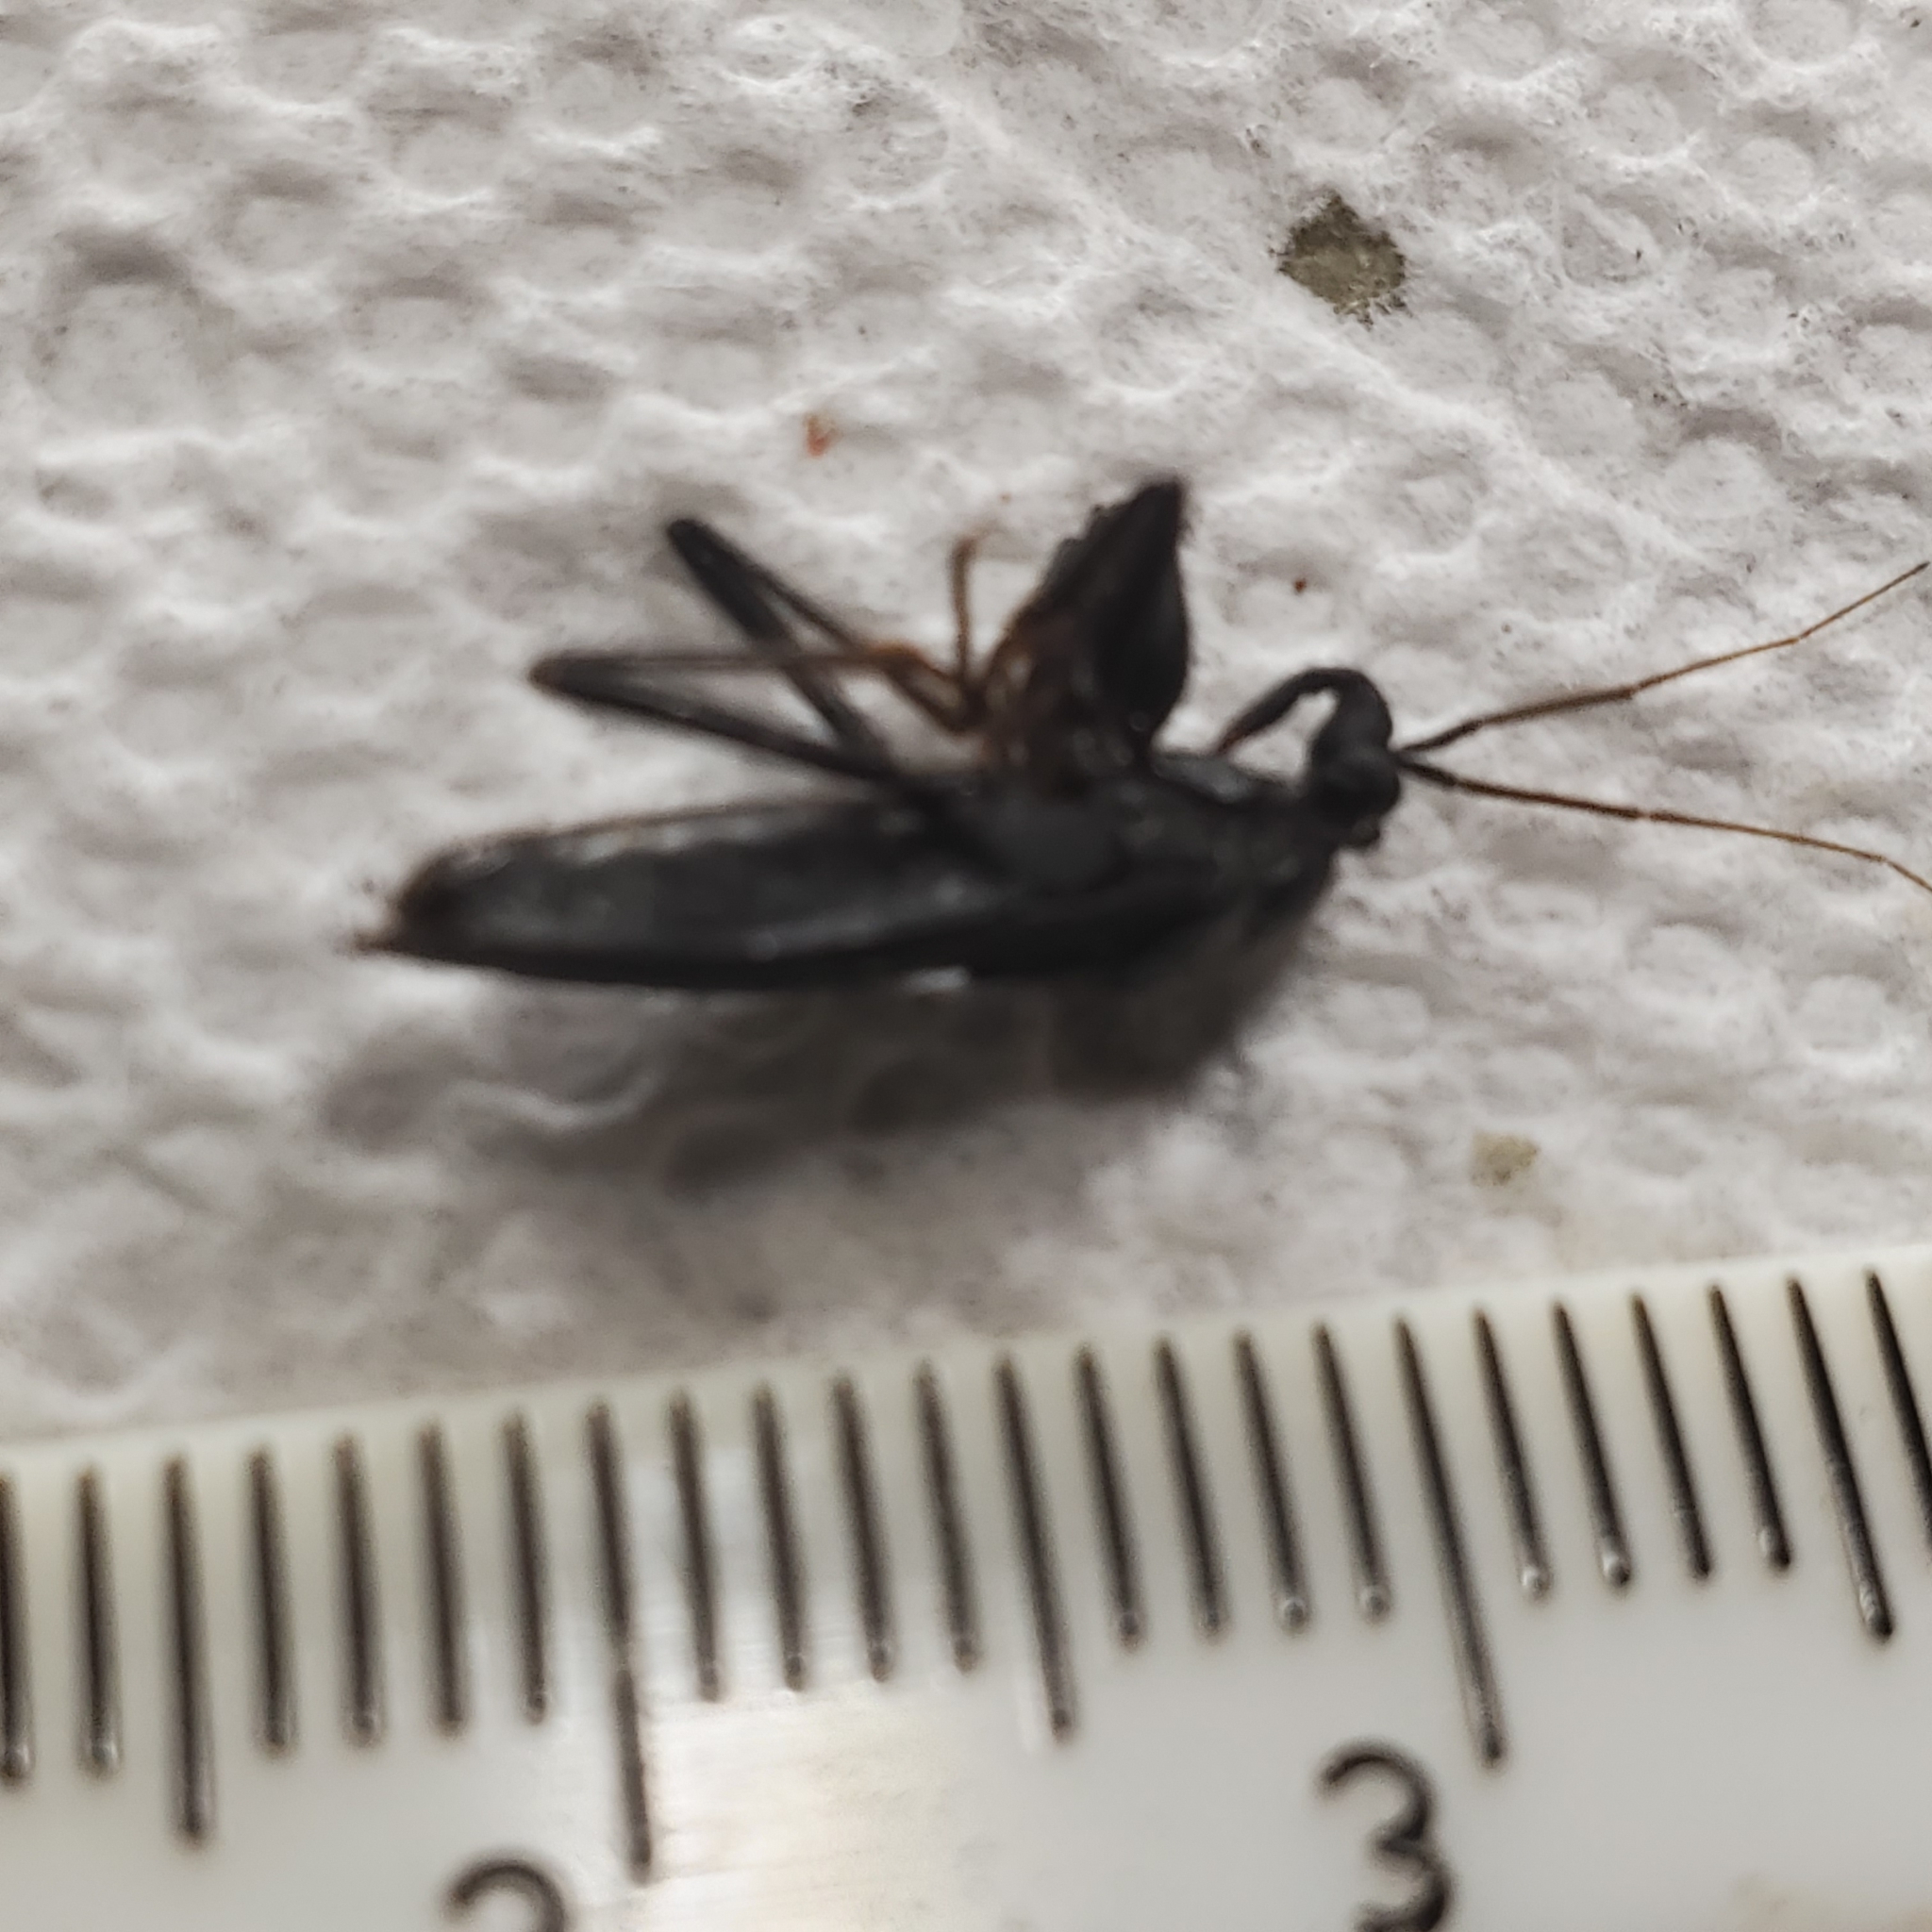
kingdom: Animalia
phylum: Arthropoda
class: Insecta
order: Hemiptera
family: Reduviidae
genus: Melanolestes
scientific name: Melanolestes picipes
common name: Assassin bug
